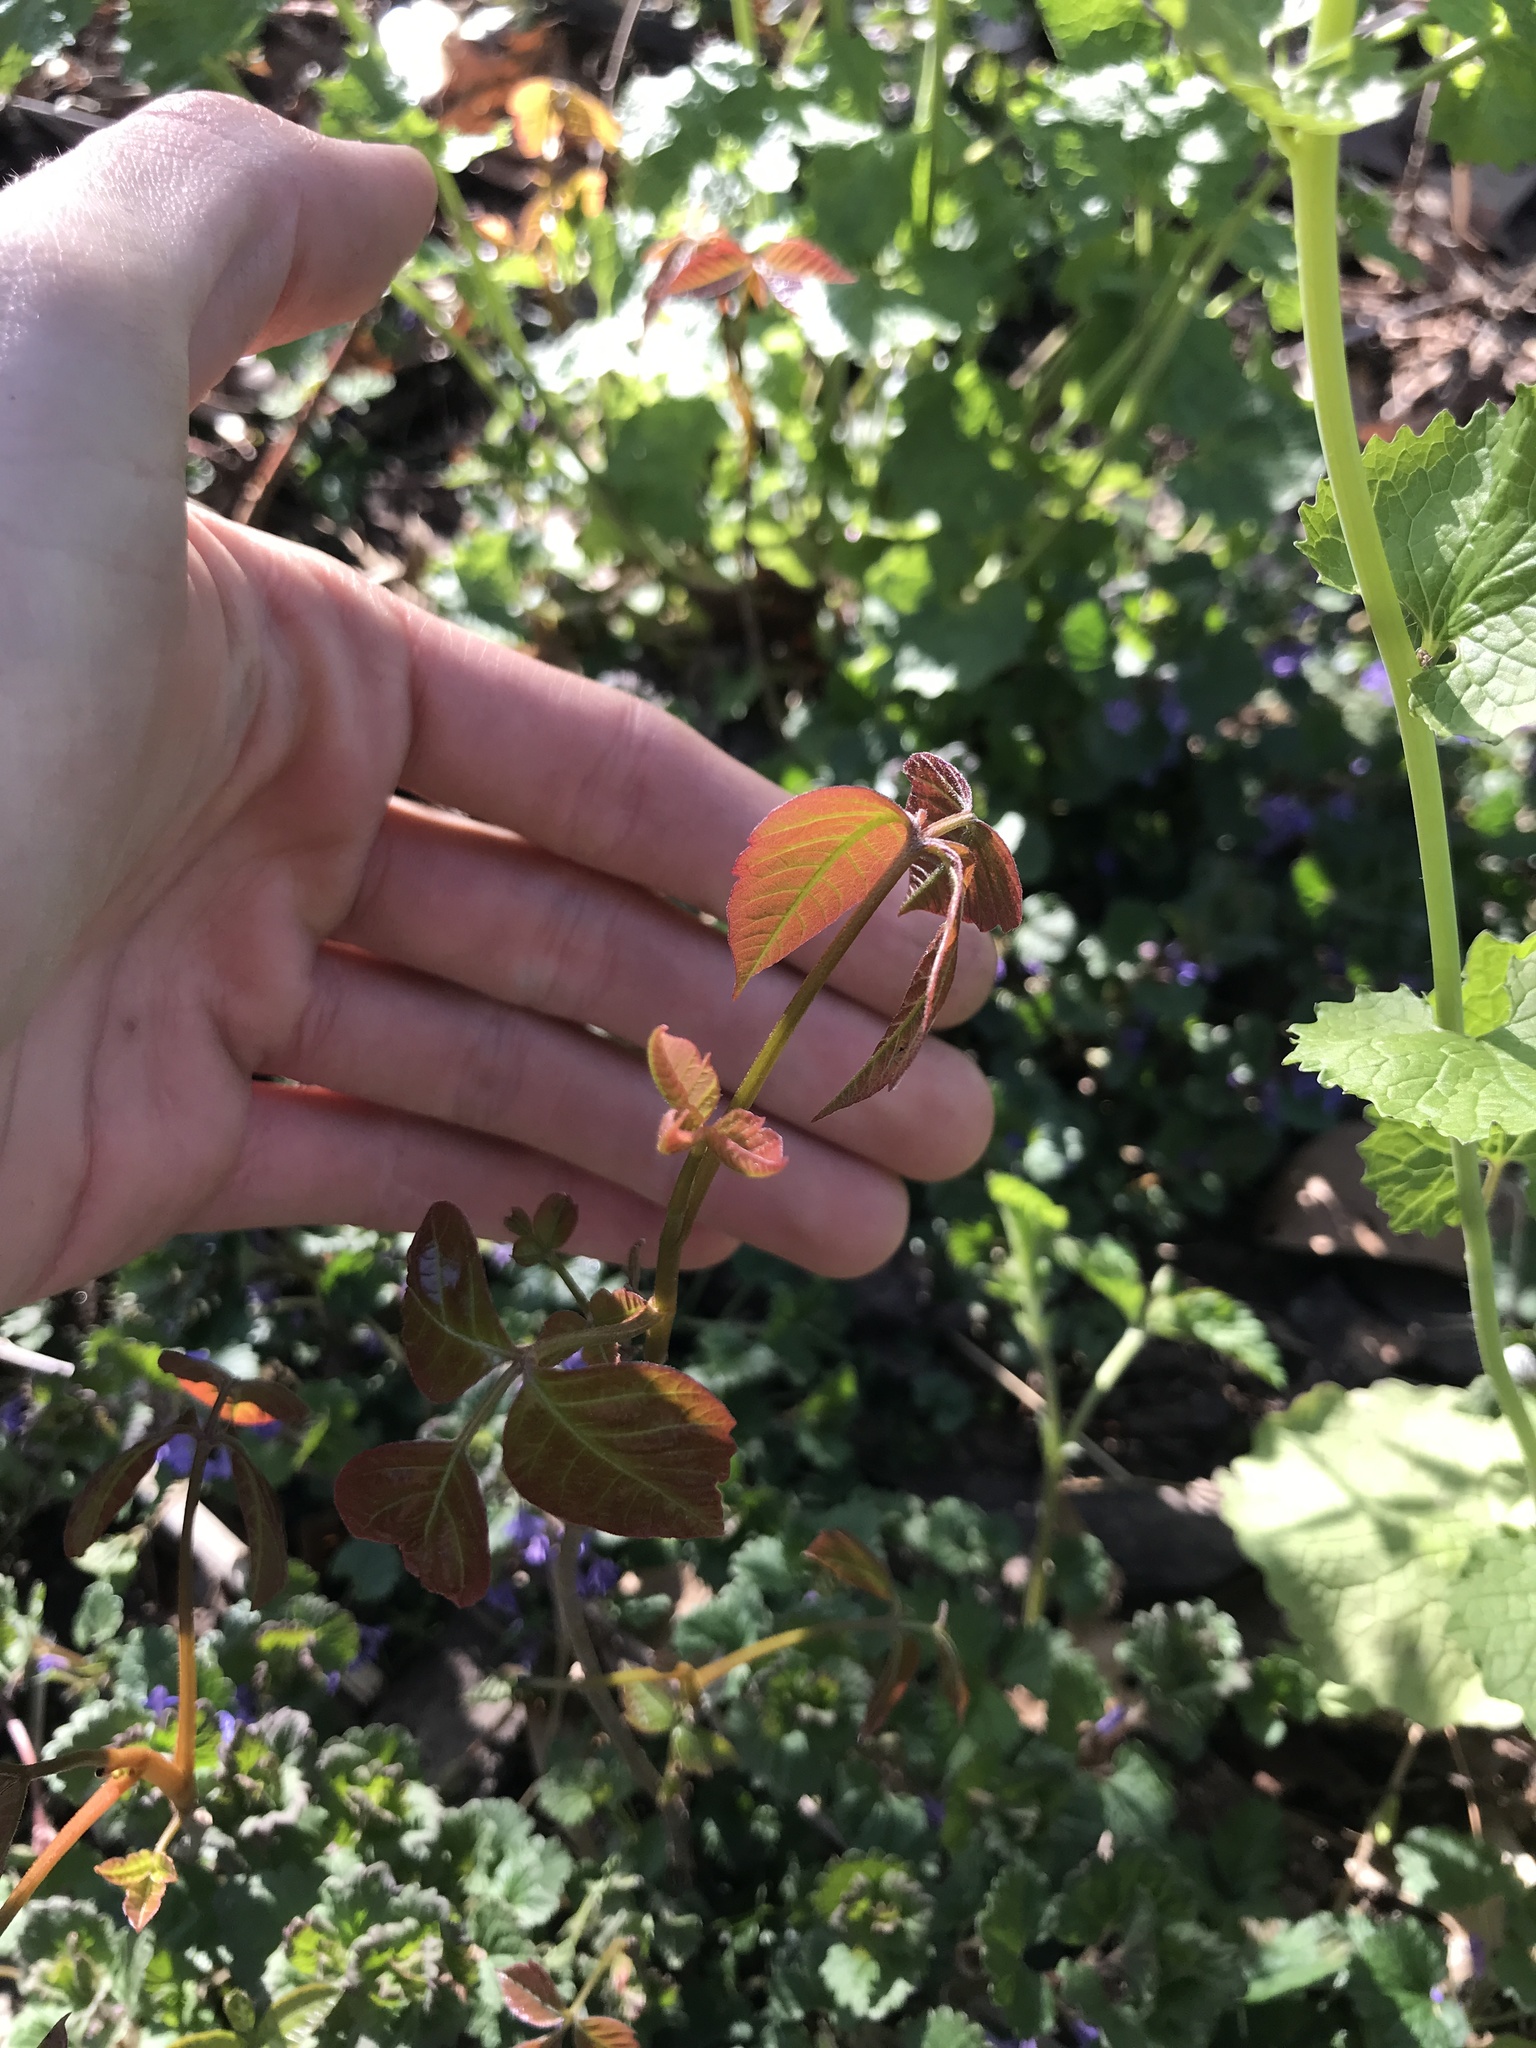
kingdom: Plantae
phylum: Tracheophyta
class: Magnoliopsida
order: Sapindales
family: Anacardiaceae
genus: Toxicodendron
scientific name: Toxicodendron radicans
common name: Poison ivy
